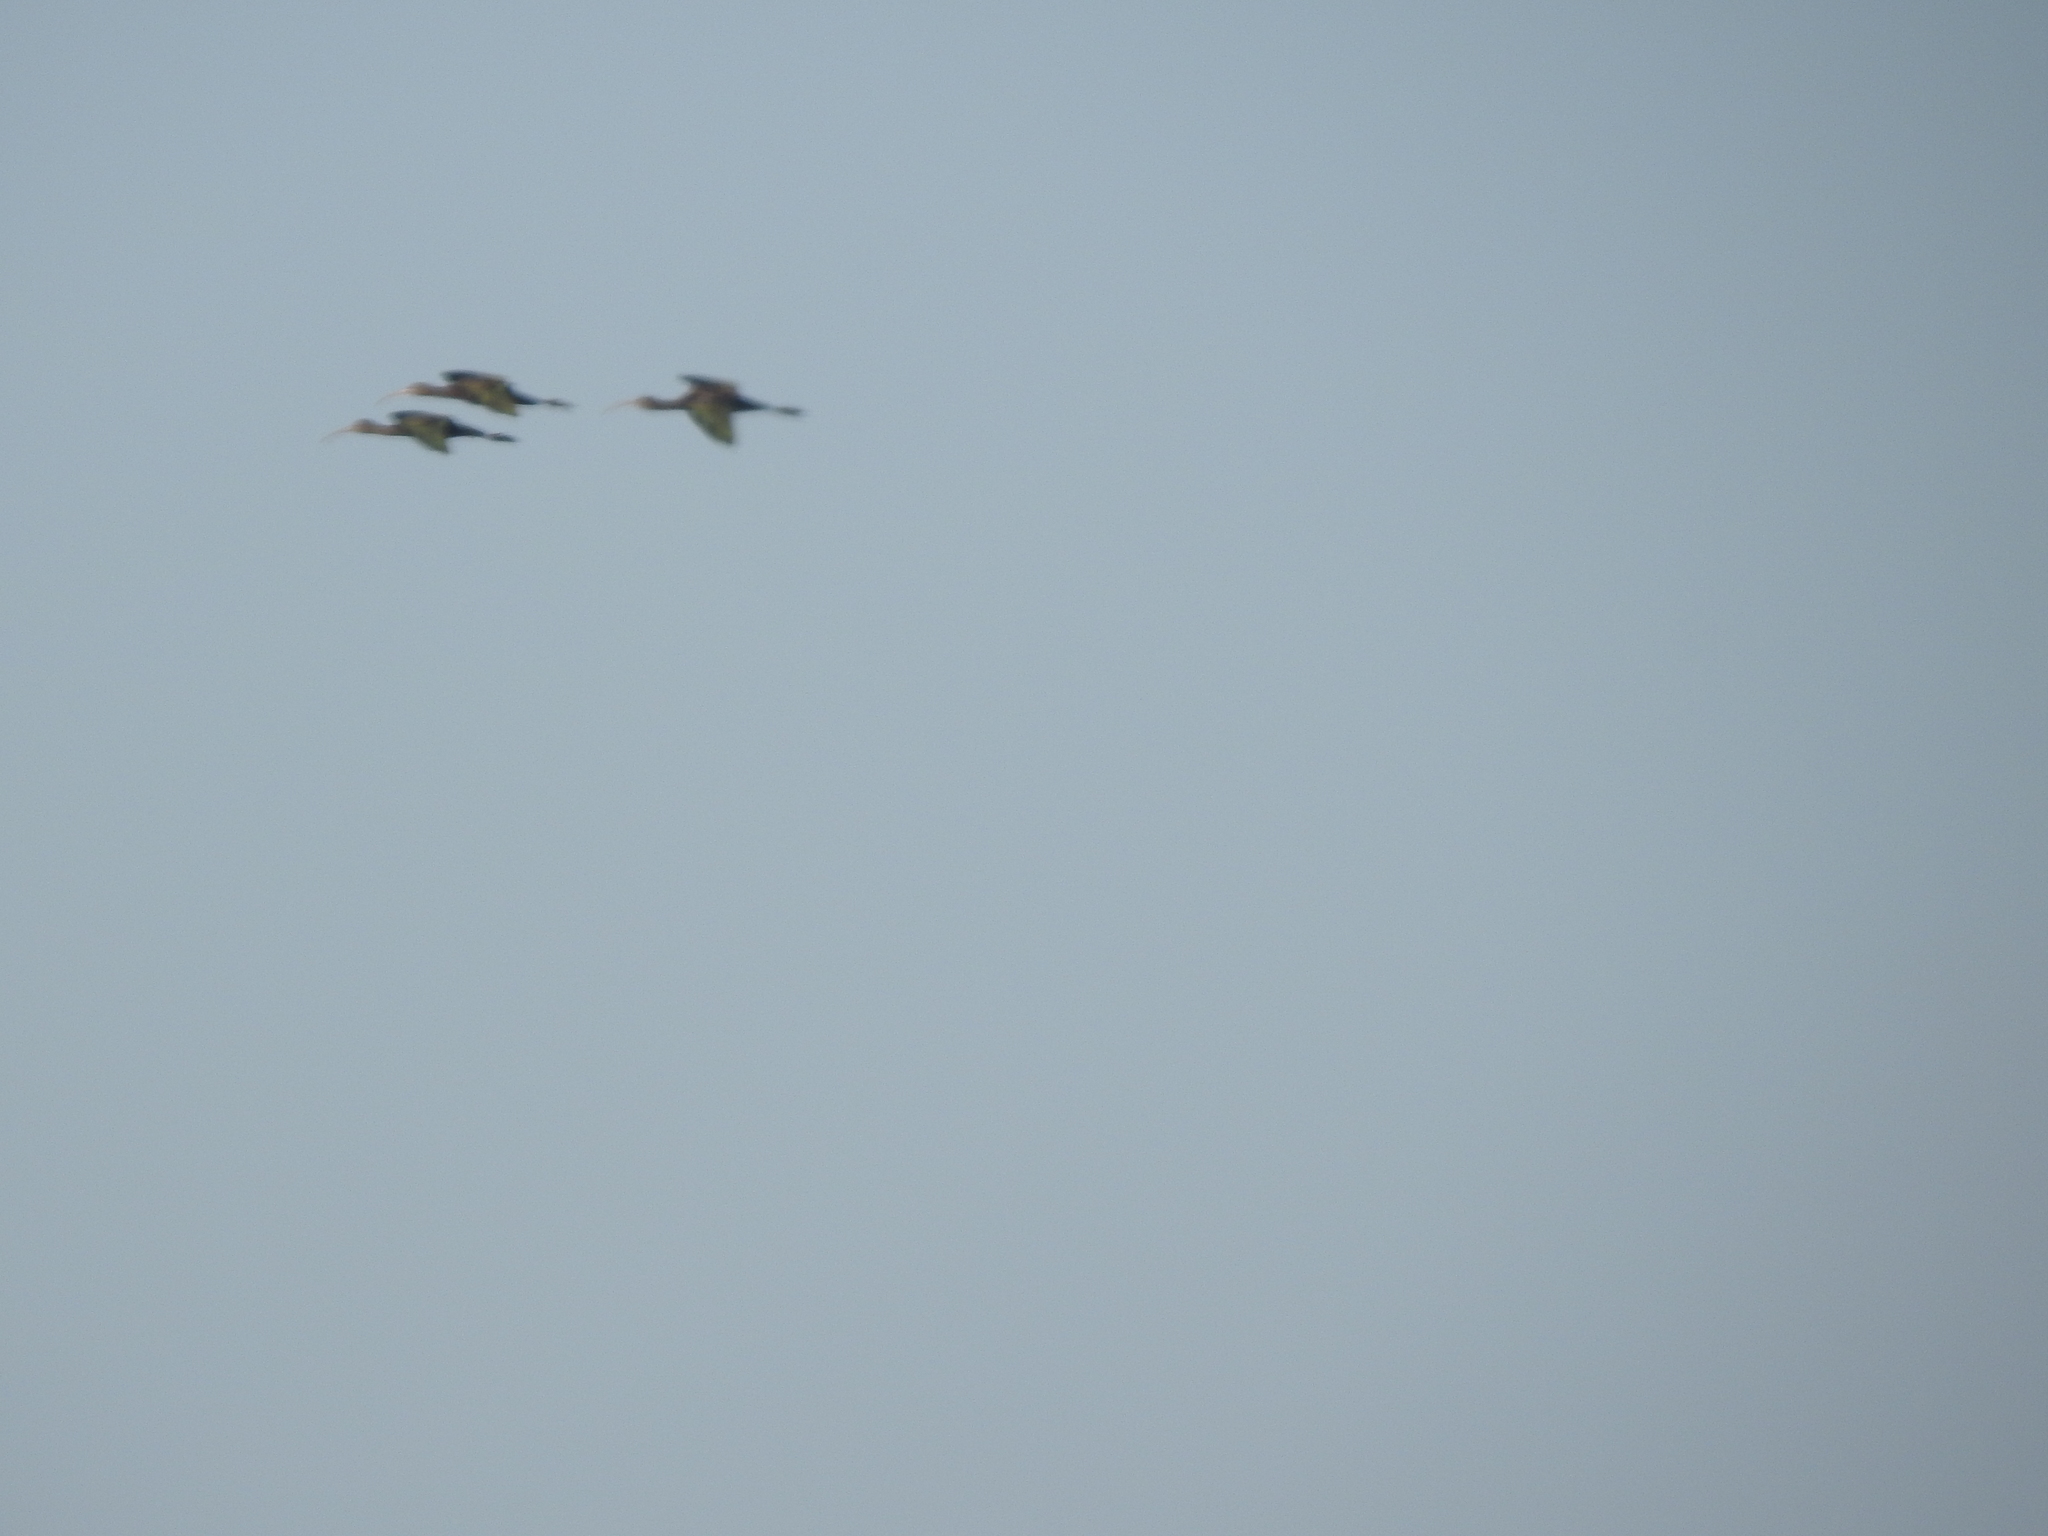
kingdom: Animalia
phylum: Chordata
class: Aves
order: Pelecaniformes
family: Threskiornithidae
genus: Plegadis
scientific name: Plegadis chihi
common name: White-faced ibis
